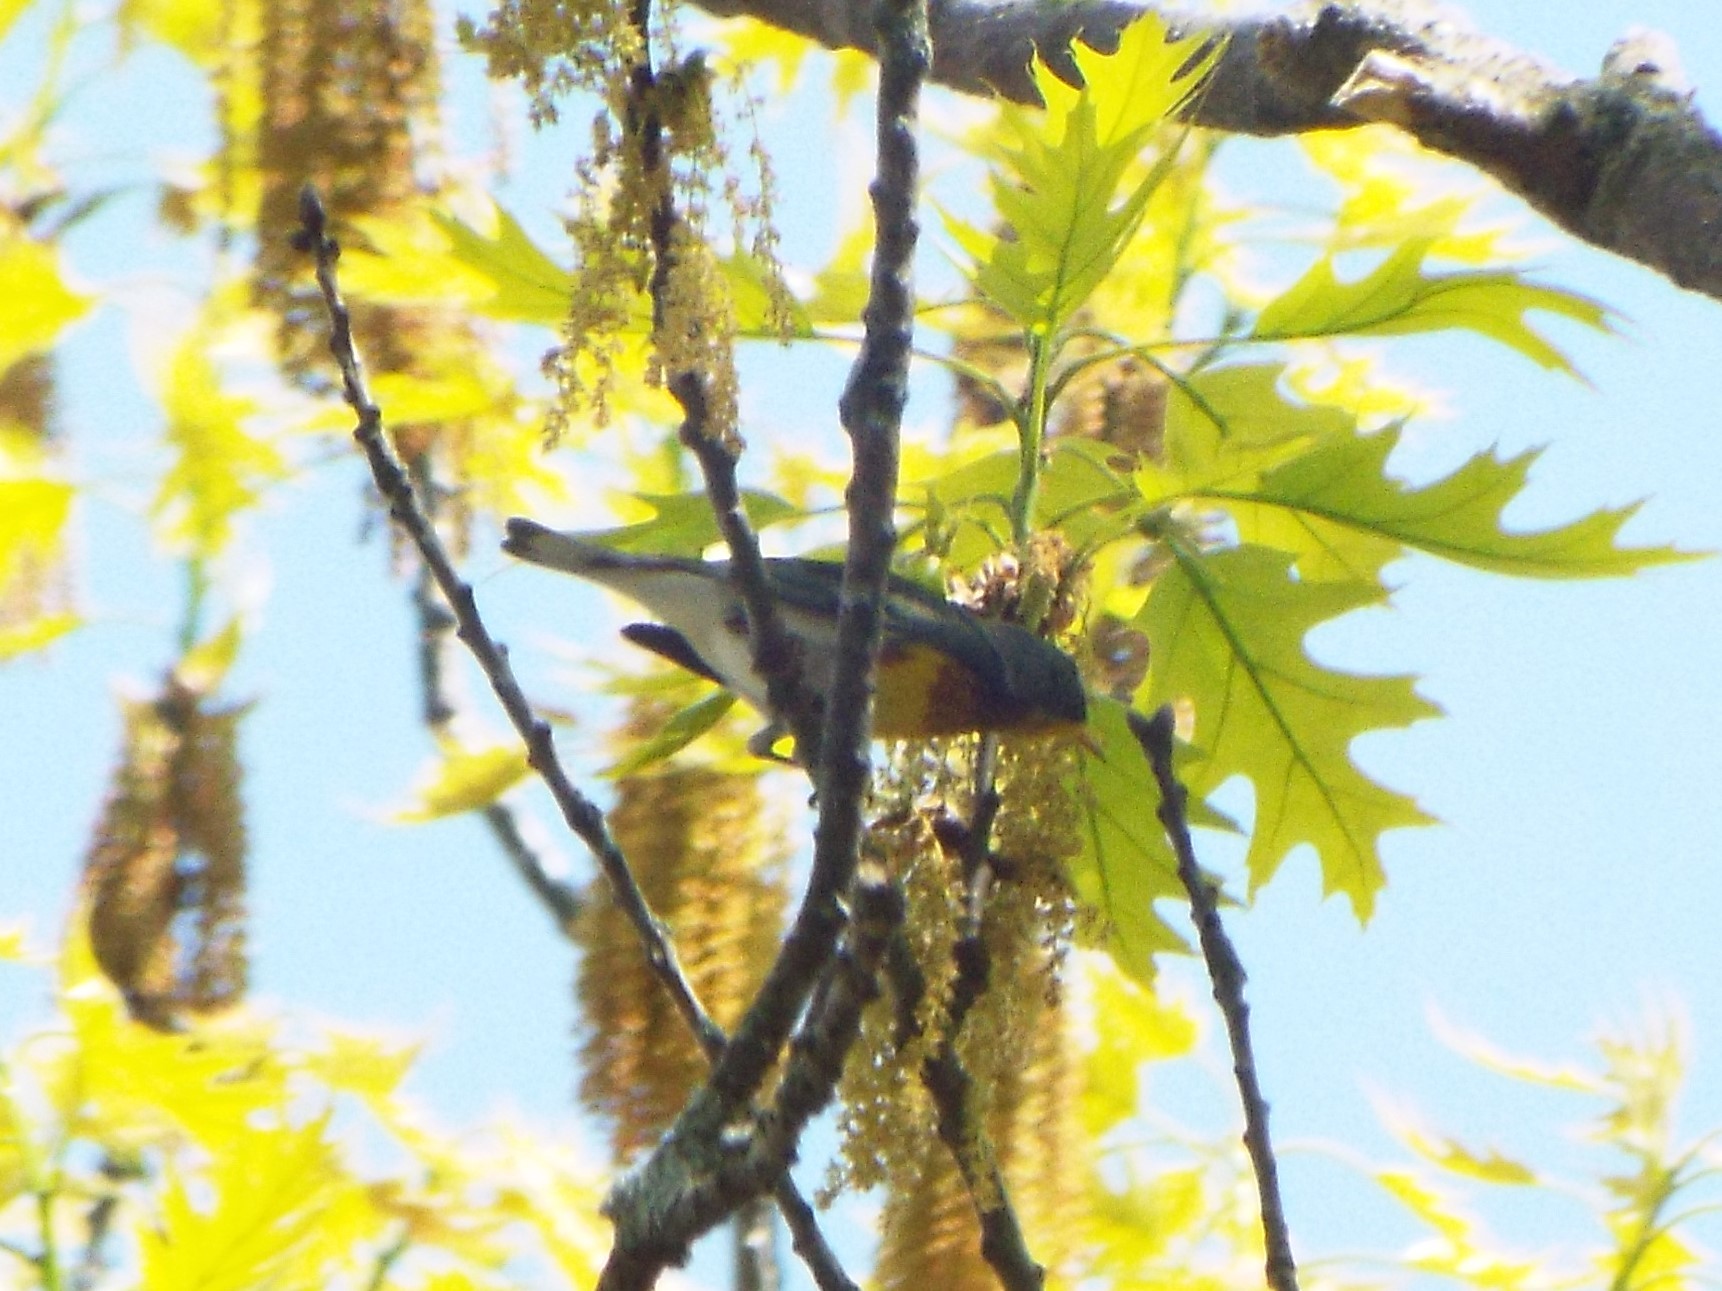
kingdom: Animalia
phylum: Chordata
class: Aves
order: Passeriformes
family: Parulidae
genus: Setophaga
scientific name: Setophaga americana
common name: Northern parula
